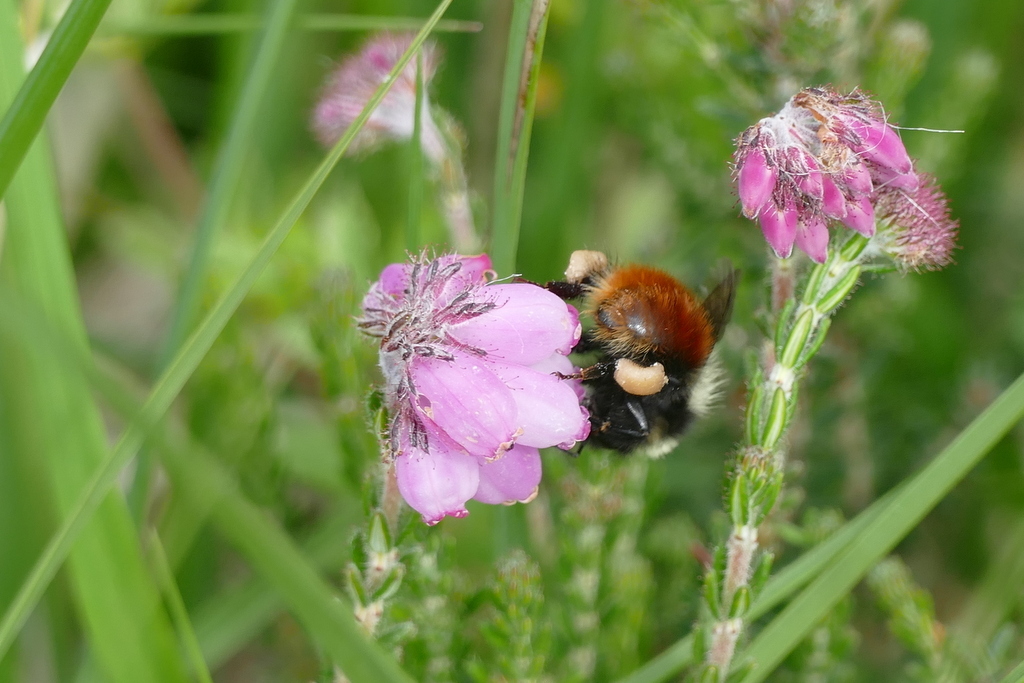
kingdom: Animalia
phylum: Arthropoda
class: Insecta
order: Hymenoptera
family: Apidae
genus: Bombus
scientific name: Bombus monticola
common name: Bilberry humble-bee
